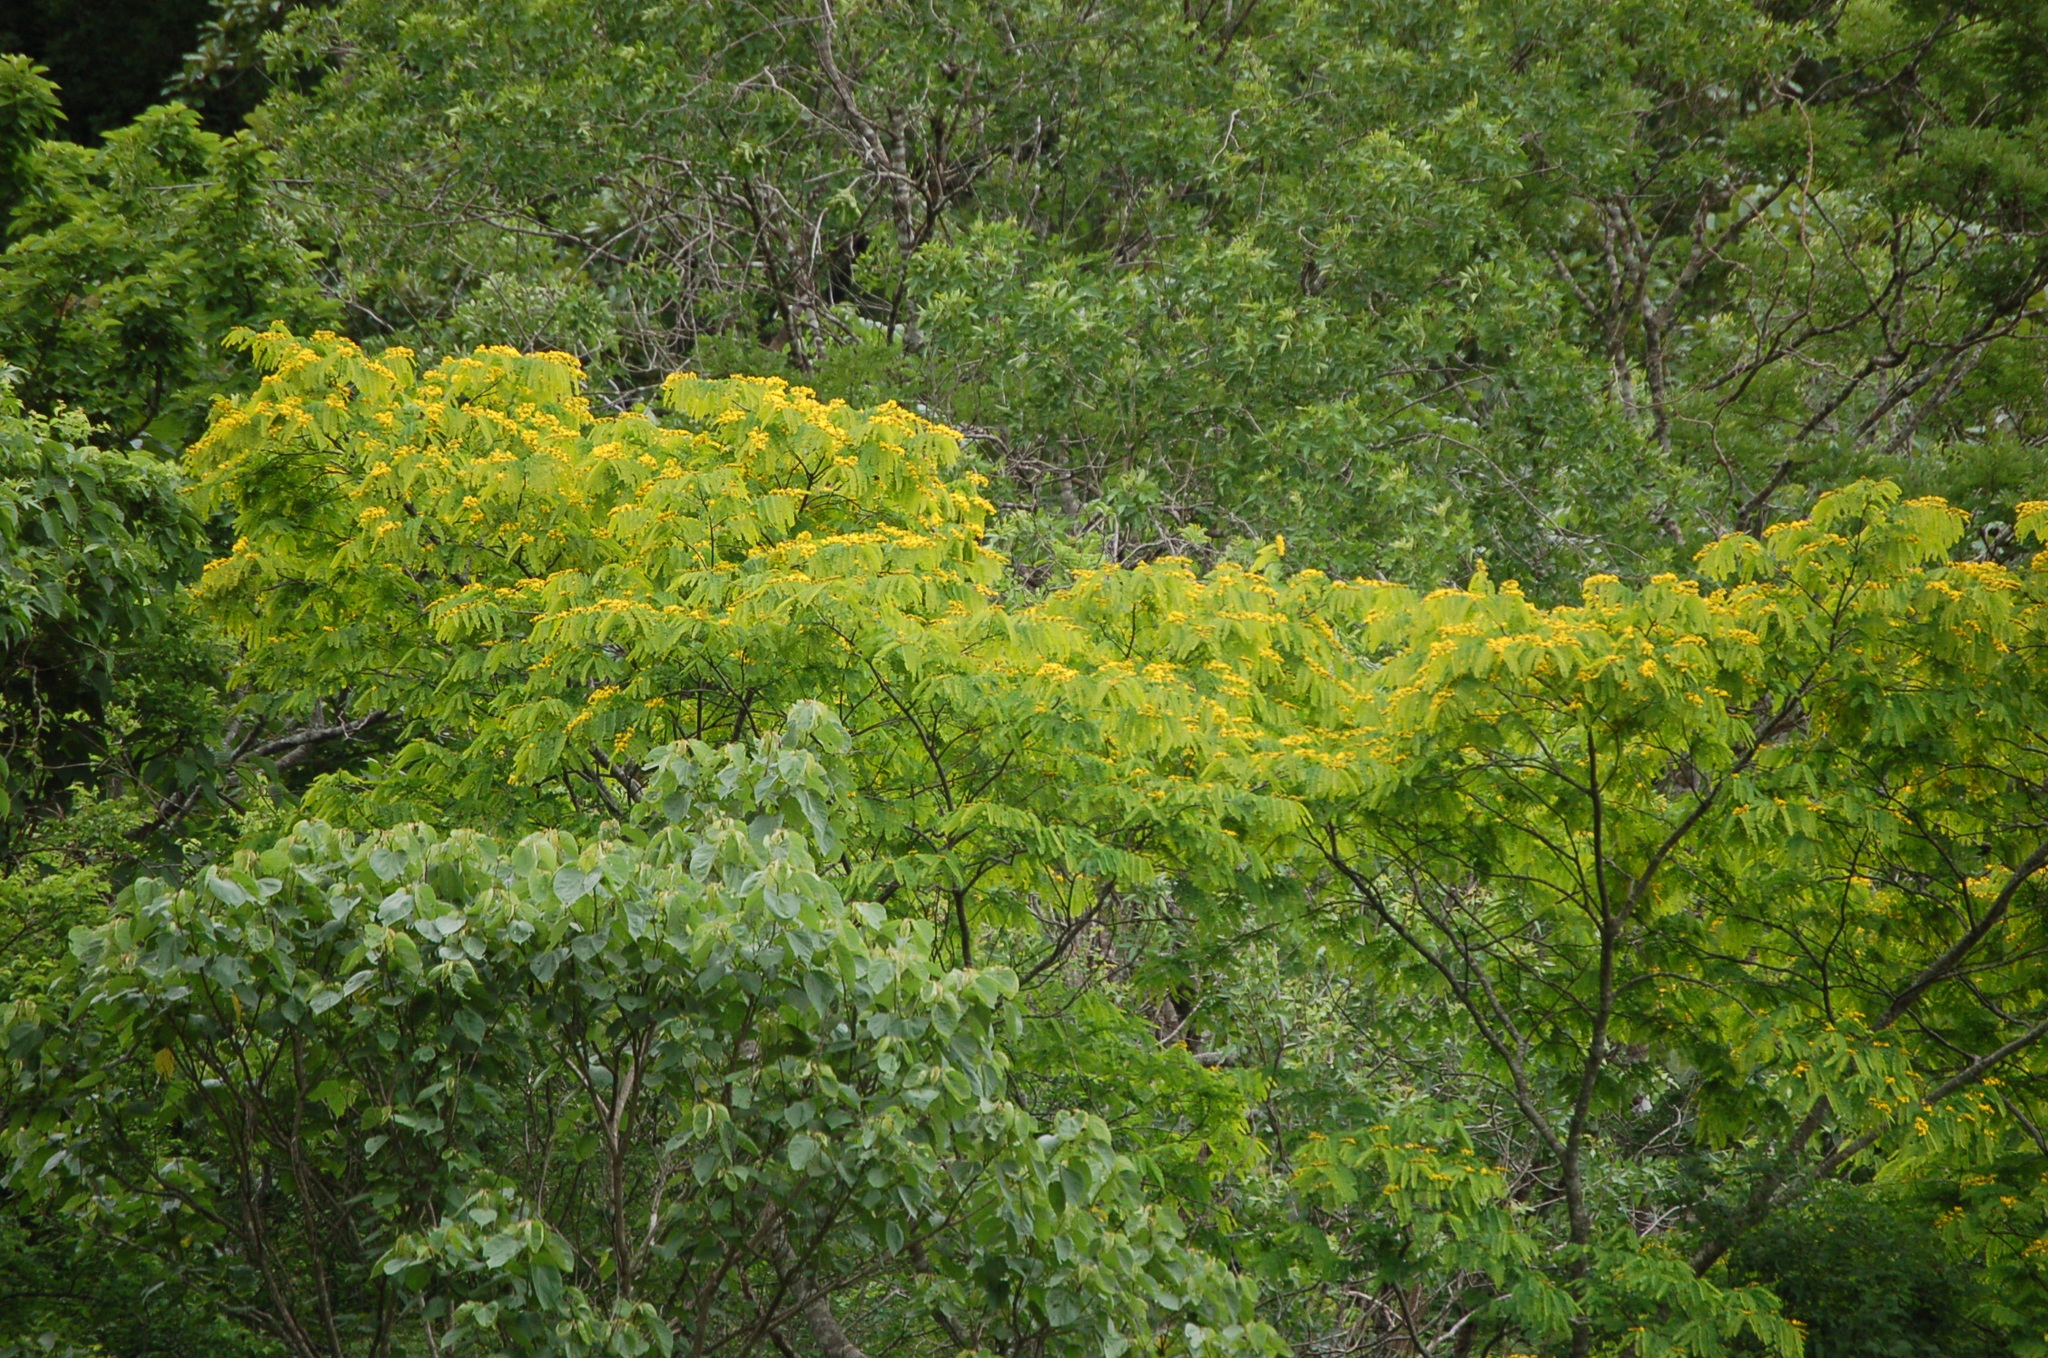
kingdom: Plantae
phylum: Tracheophyta
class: Magnoliopsida
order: Fabales
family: Fabaceae
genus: Poeppigia
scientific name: Poeppigia procera
